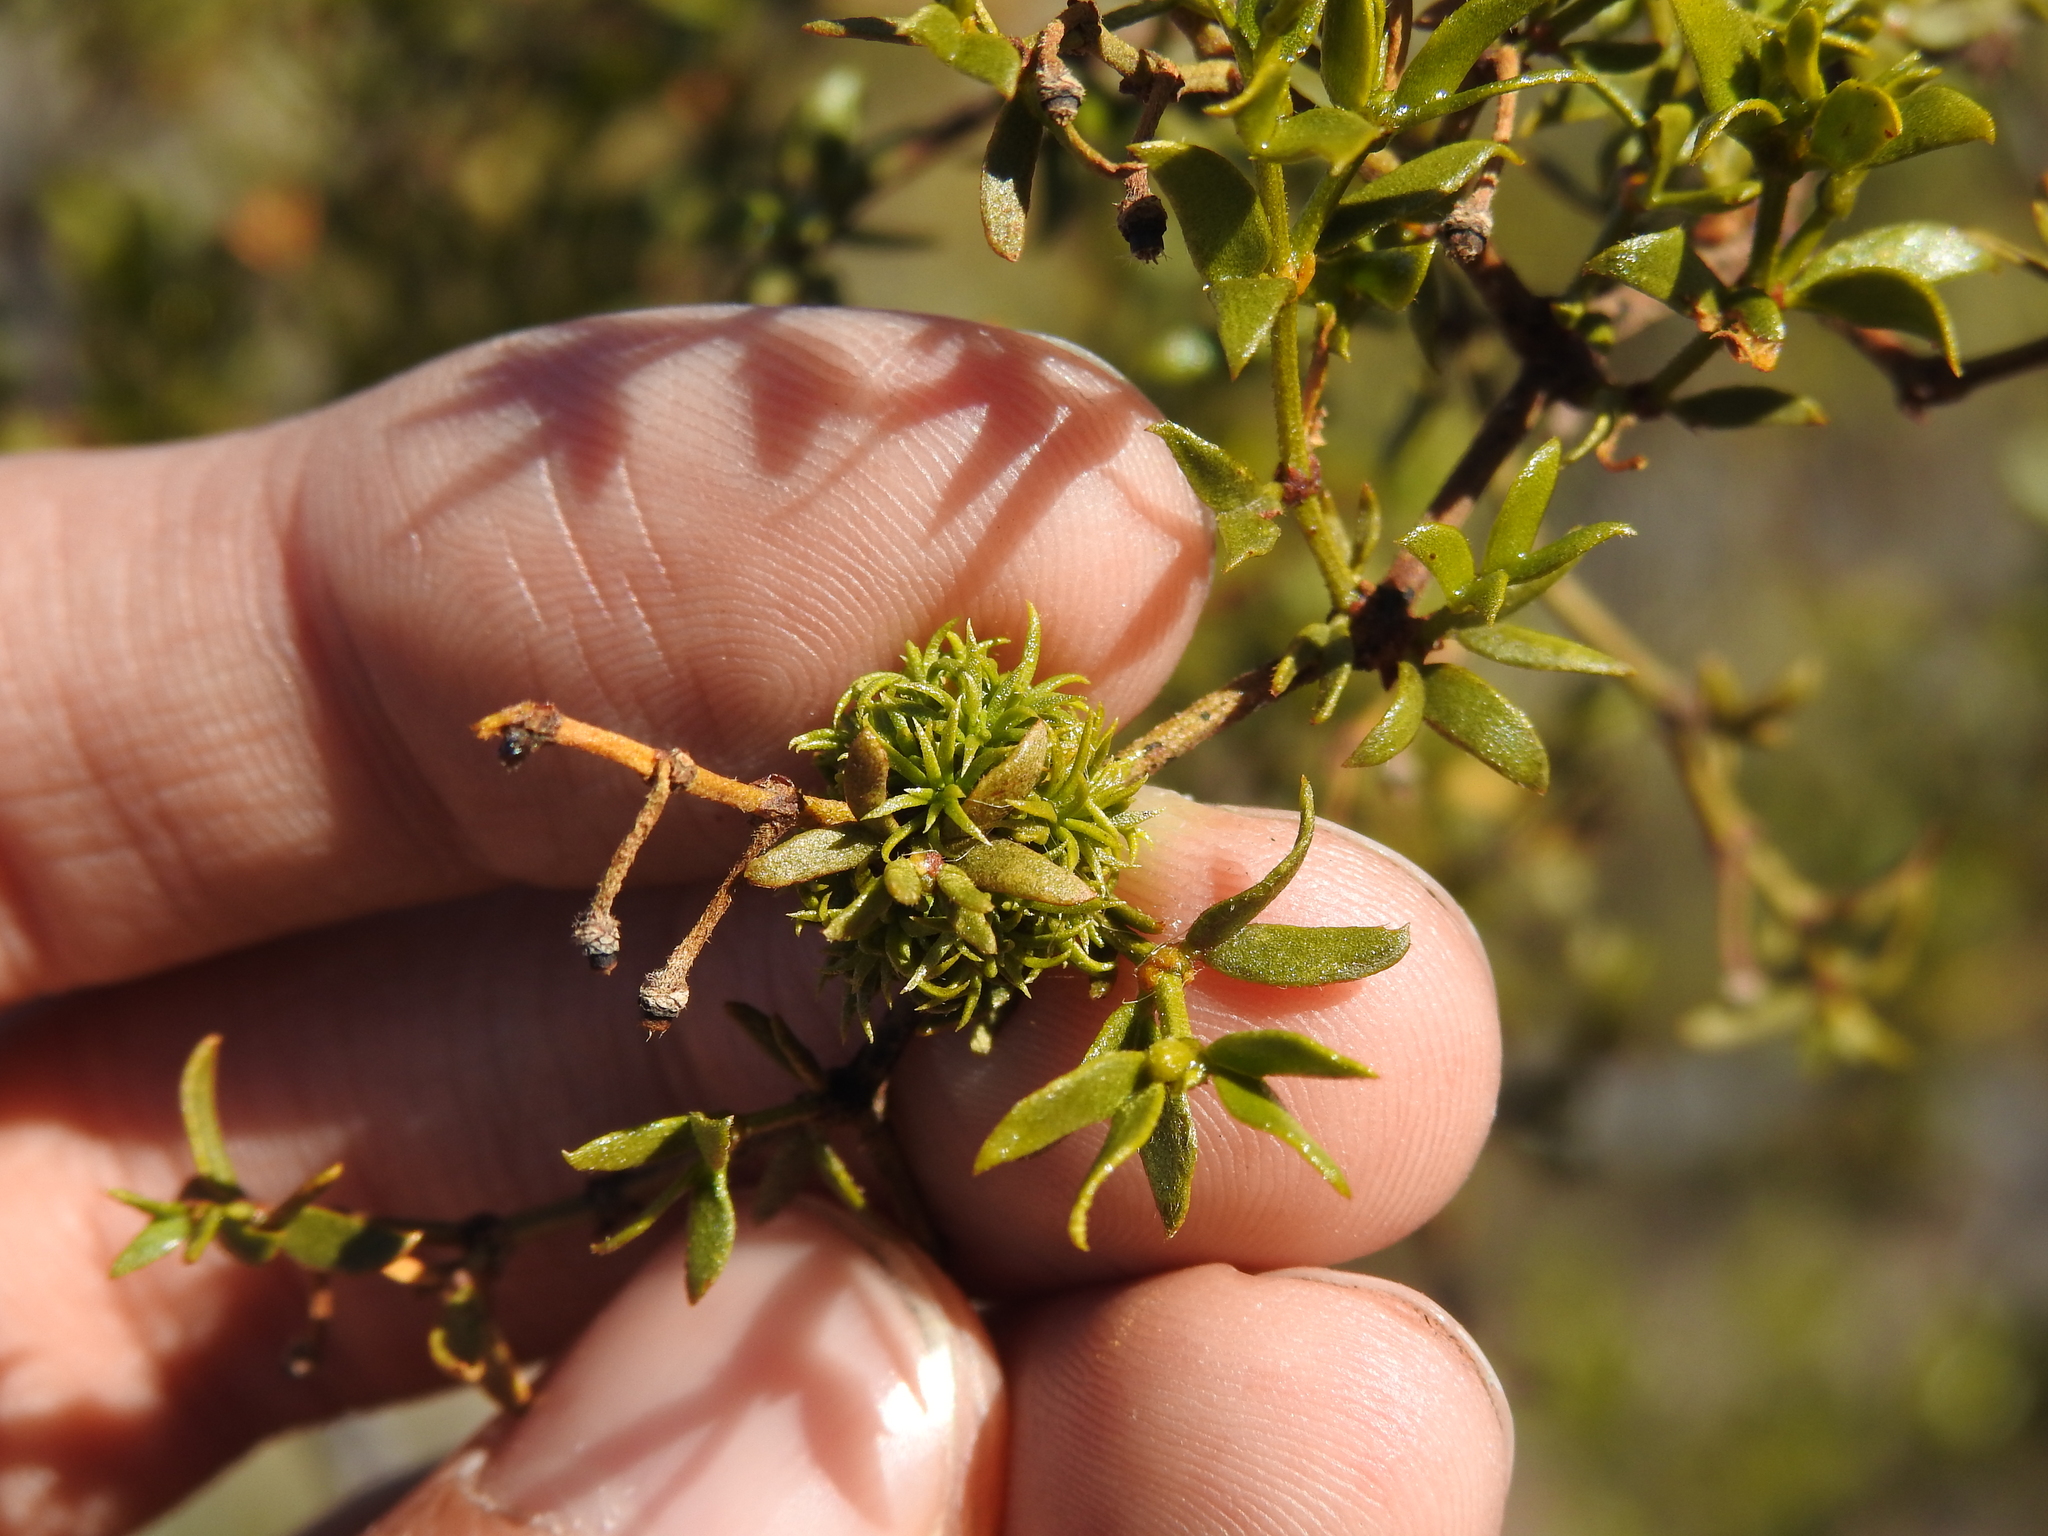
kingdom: Animalia
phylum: Arthropoda
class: Insecta
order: Diptera
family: Cecidomyiidae
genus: Asphondylia
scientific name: Asphondylia auripila
